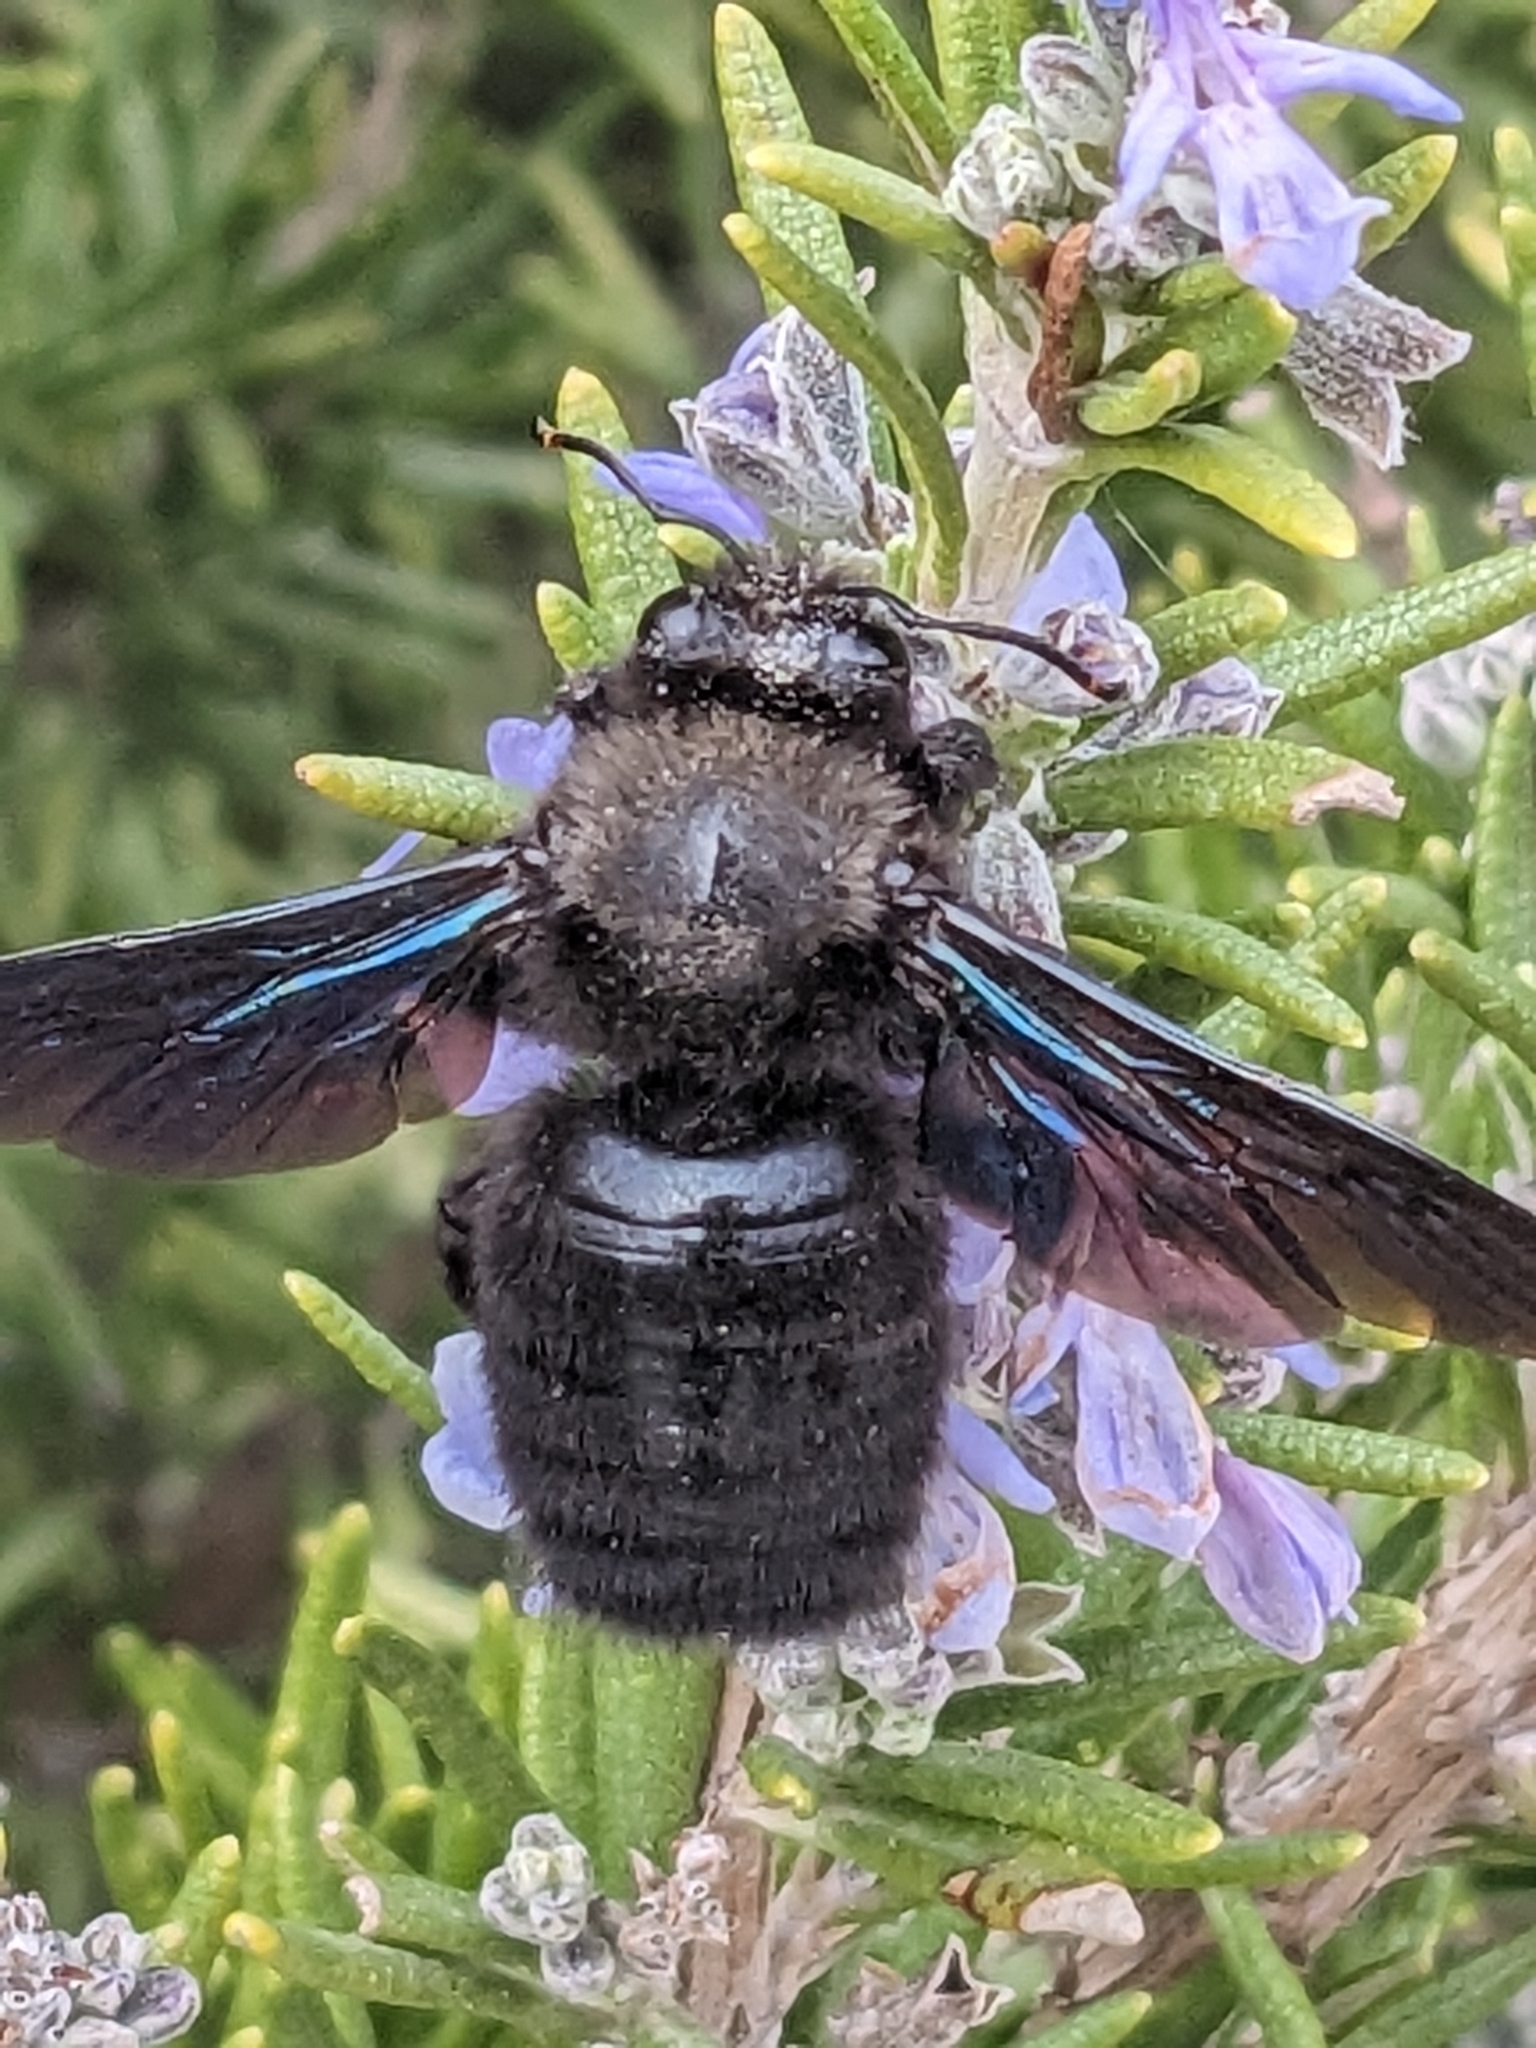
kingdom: Animalia
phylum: Arthropoda
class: Insecta
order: Hymenoptera
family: Apidae
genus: Xylocopa
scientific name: Xylocopa violacea
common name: Violet carpenter bee
